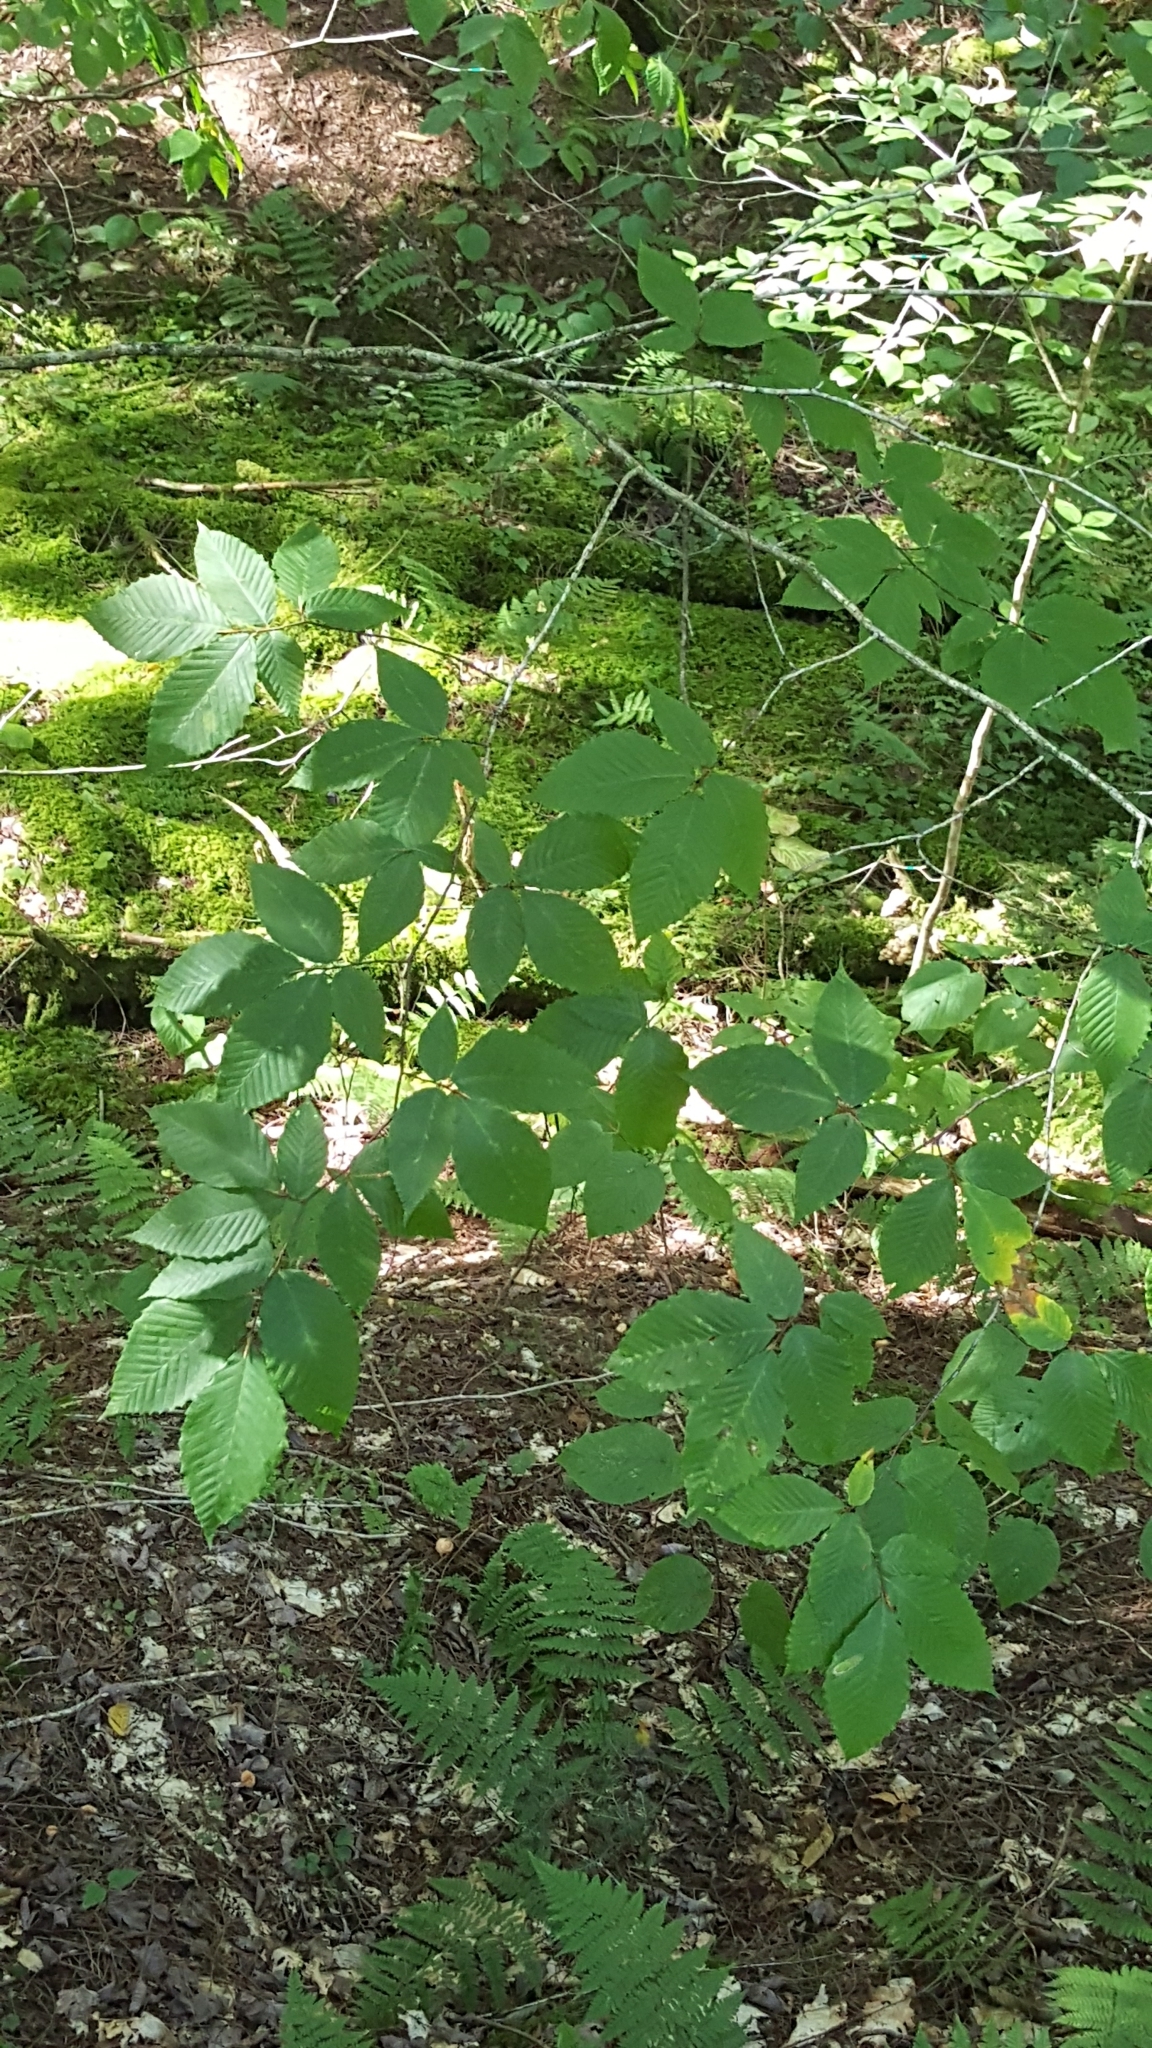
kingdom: Plantae
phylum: Tracheophyta
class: Magnoliopsida
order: Fagales
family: Fagaceae
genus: Fagus
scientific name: Fagus grandifolia
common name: American beech
